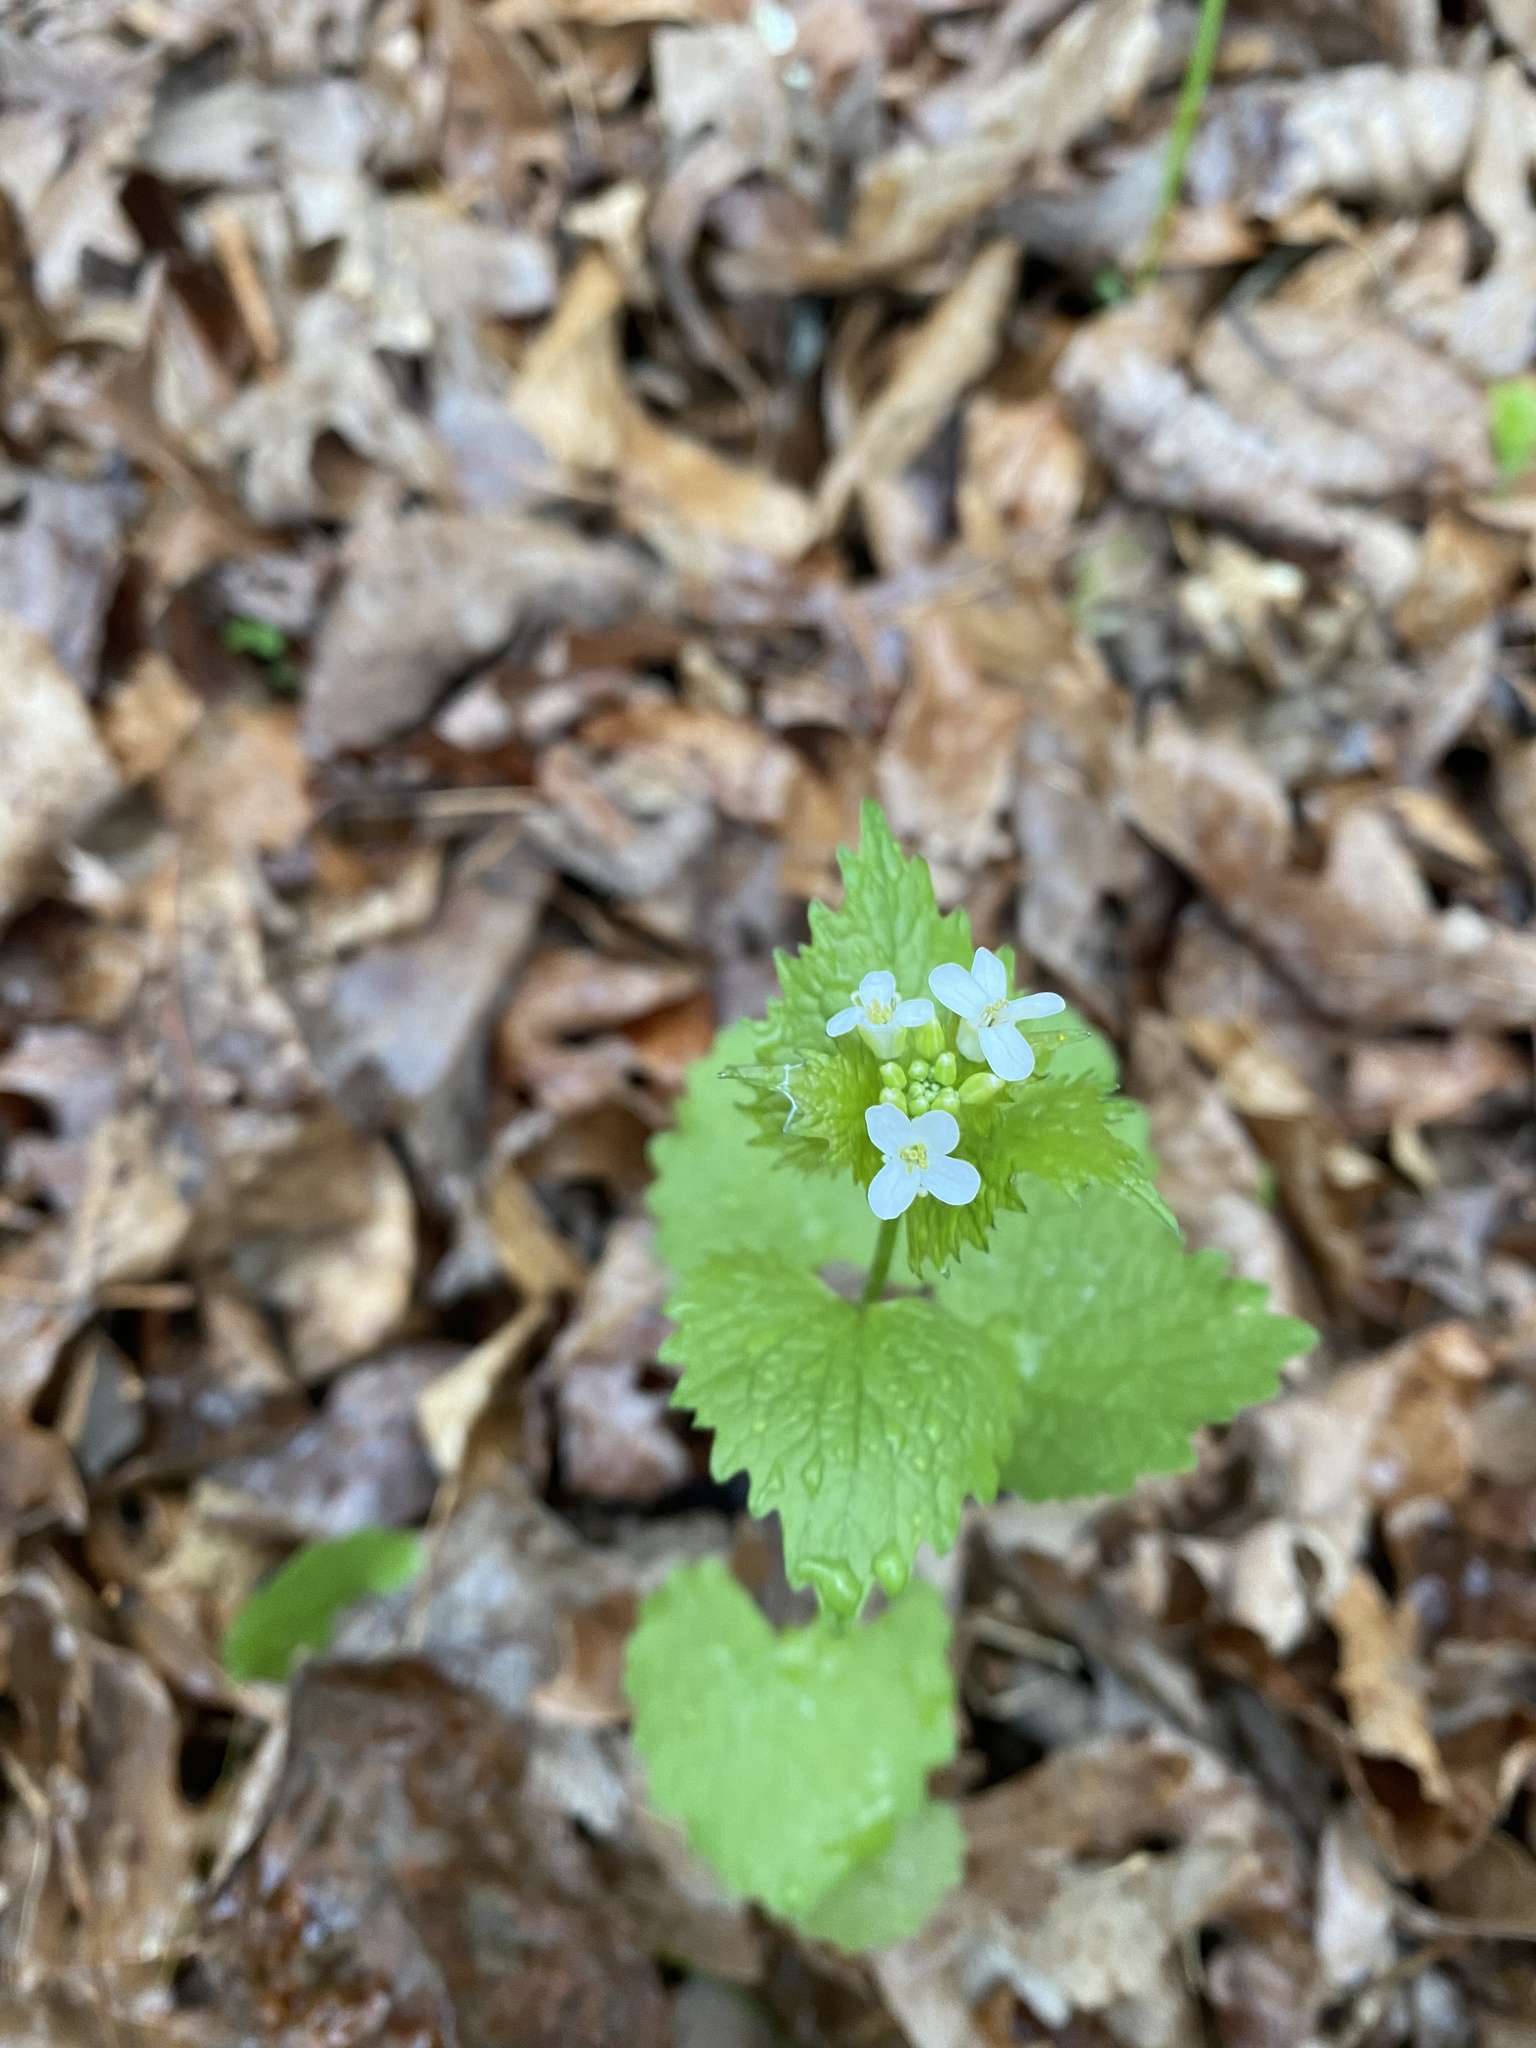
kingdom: Plantae
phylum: Tracheophyta
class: Magnoliopsida
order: Brassicales
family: Brassicaceae
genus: Alliaria
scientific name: Alliaria petiolata
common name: Garlic mustard
